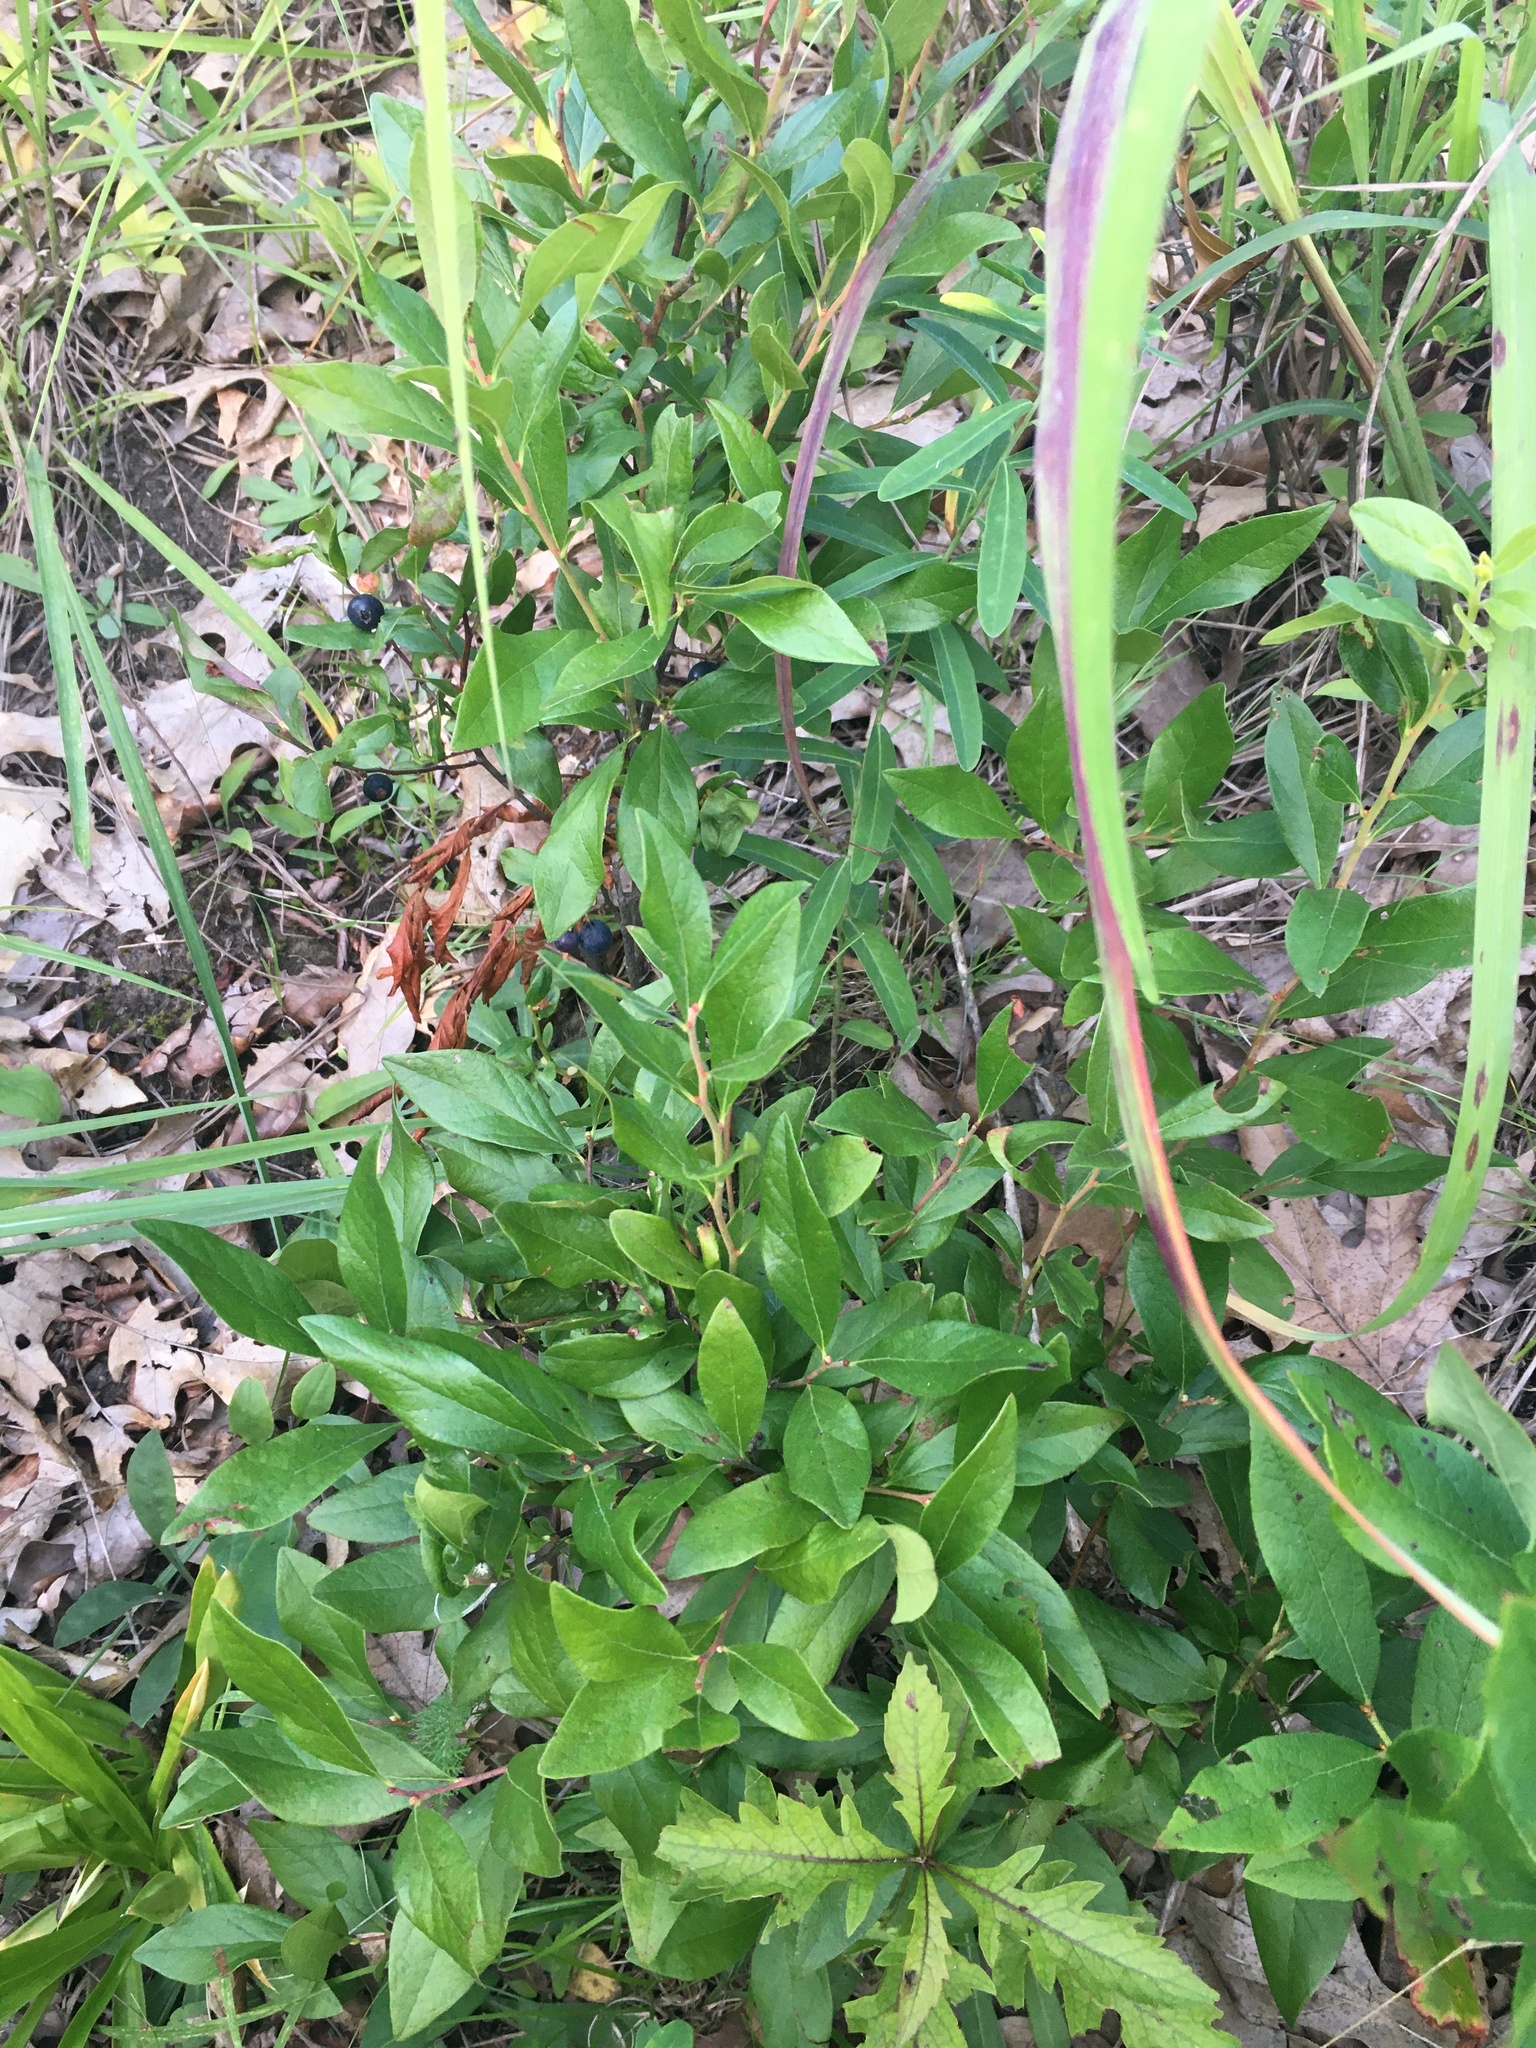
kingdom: Plantae
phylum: Tracheophyta
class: Magnoliopsida
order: Ericales
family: Ericaceae
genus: Gaylussacia
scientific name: Gaylussacia baccata
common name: Black huckleberry
